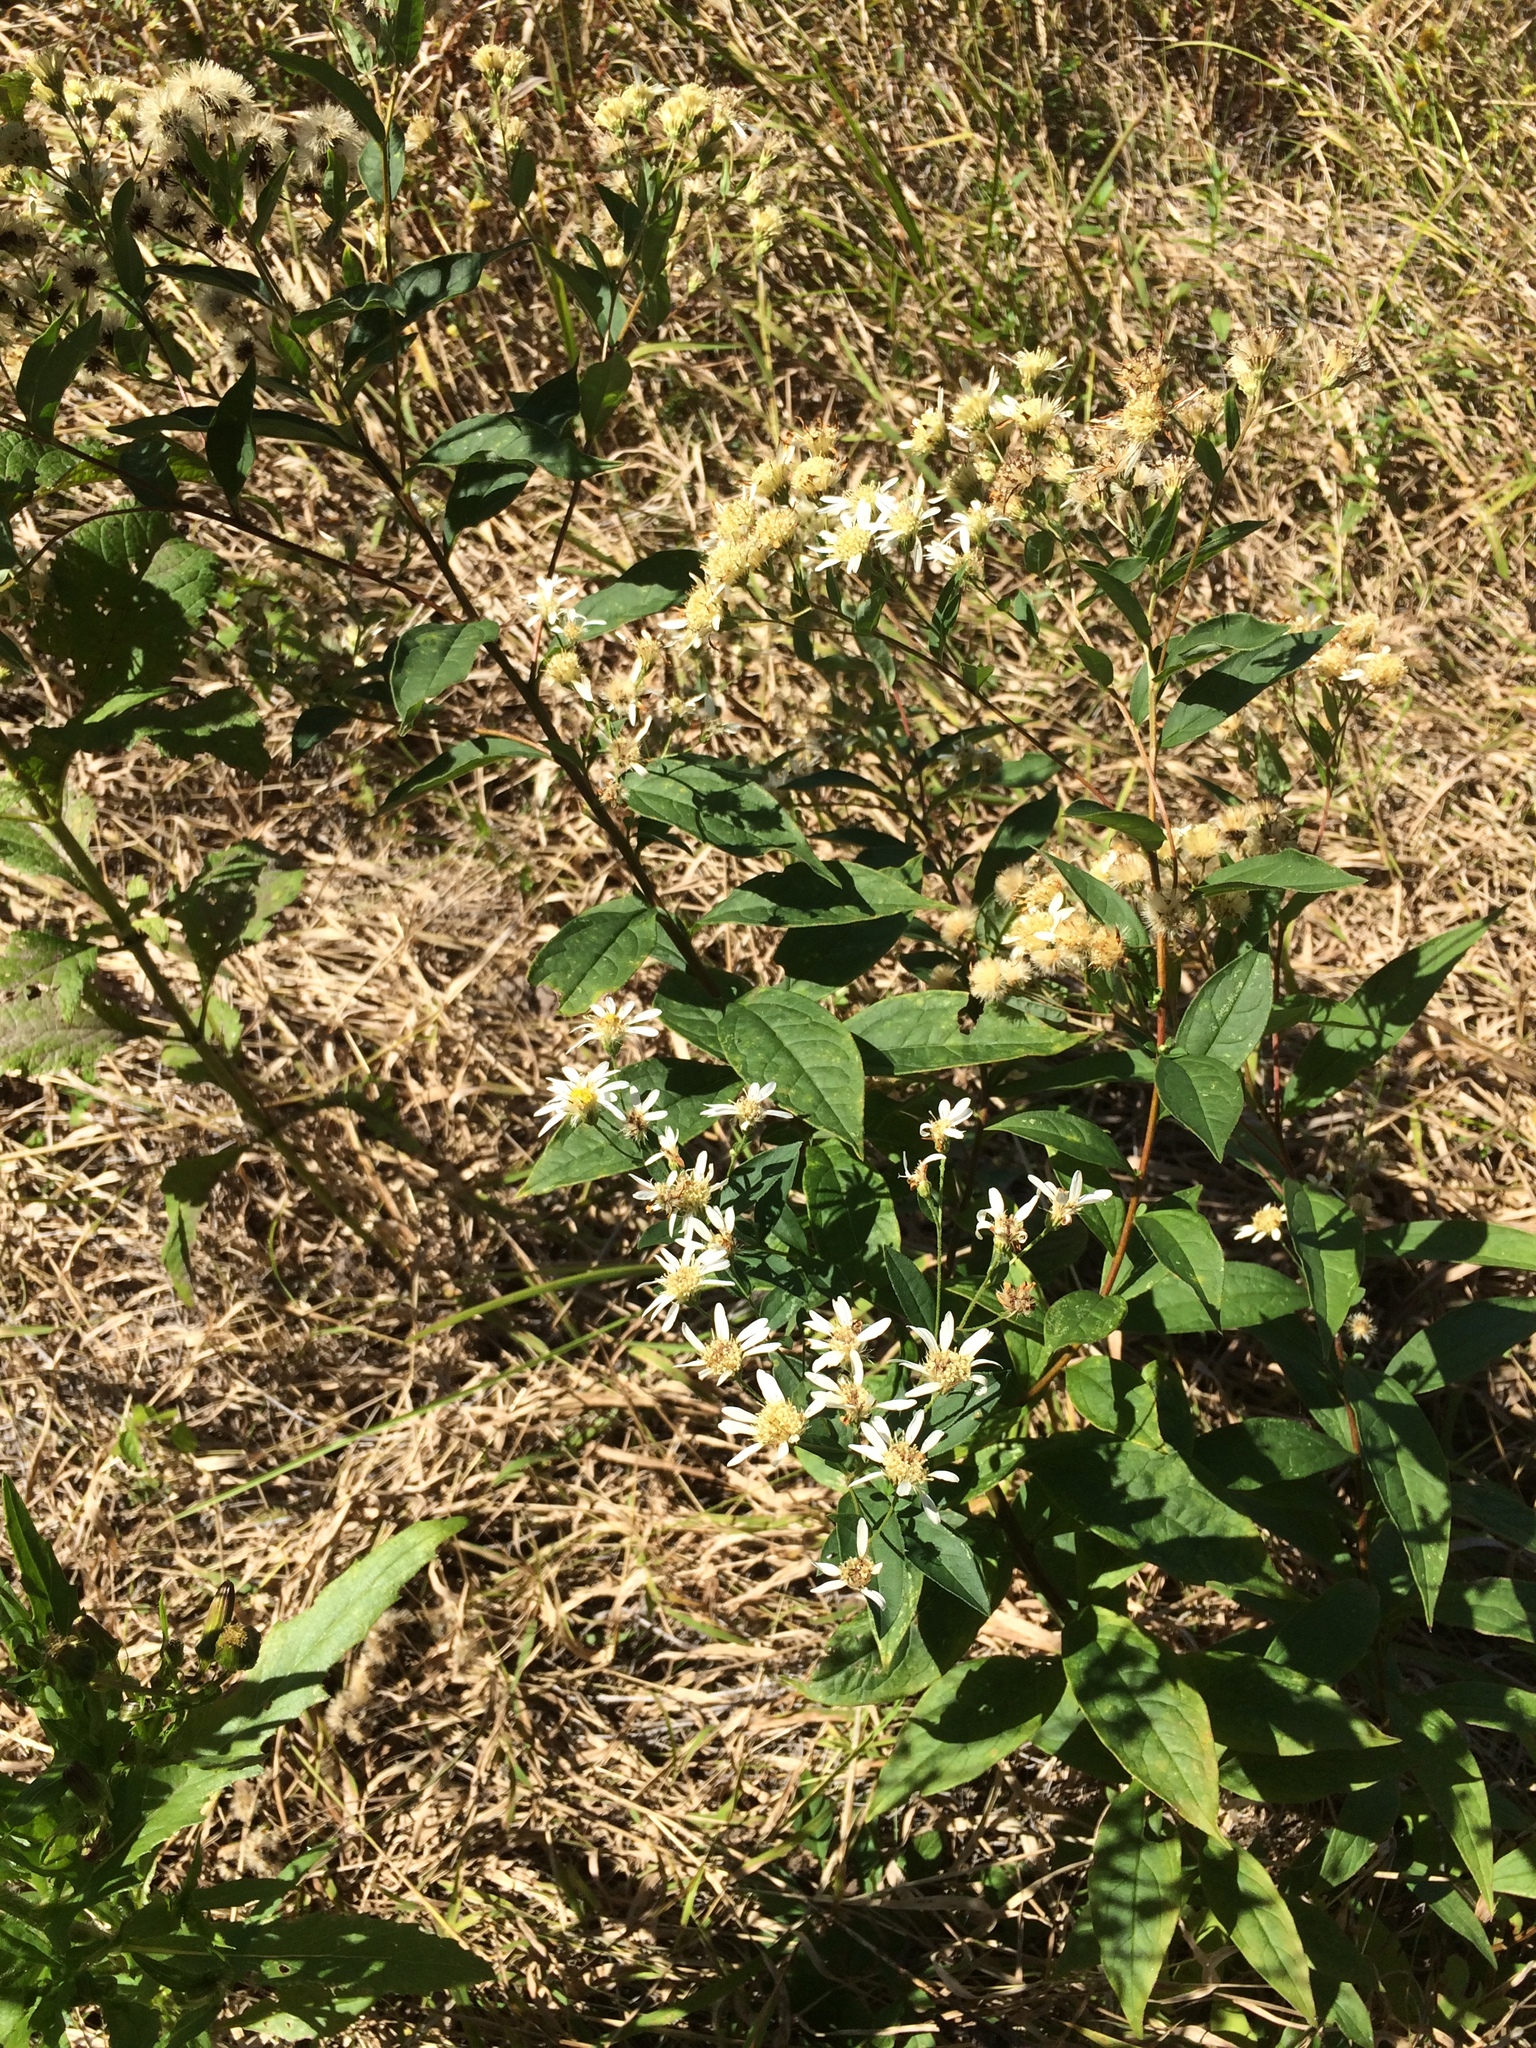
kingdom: Plantae
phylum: Tracheophyta
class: Magnoliopsida
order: Asterales
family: Asteraceae
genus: Doellingeria
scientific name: Doellingeria umbellata
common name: Flat-top white aster
